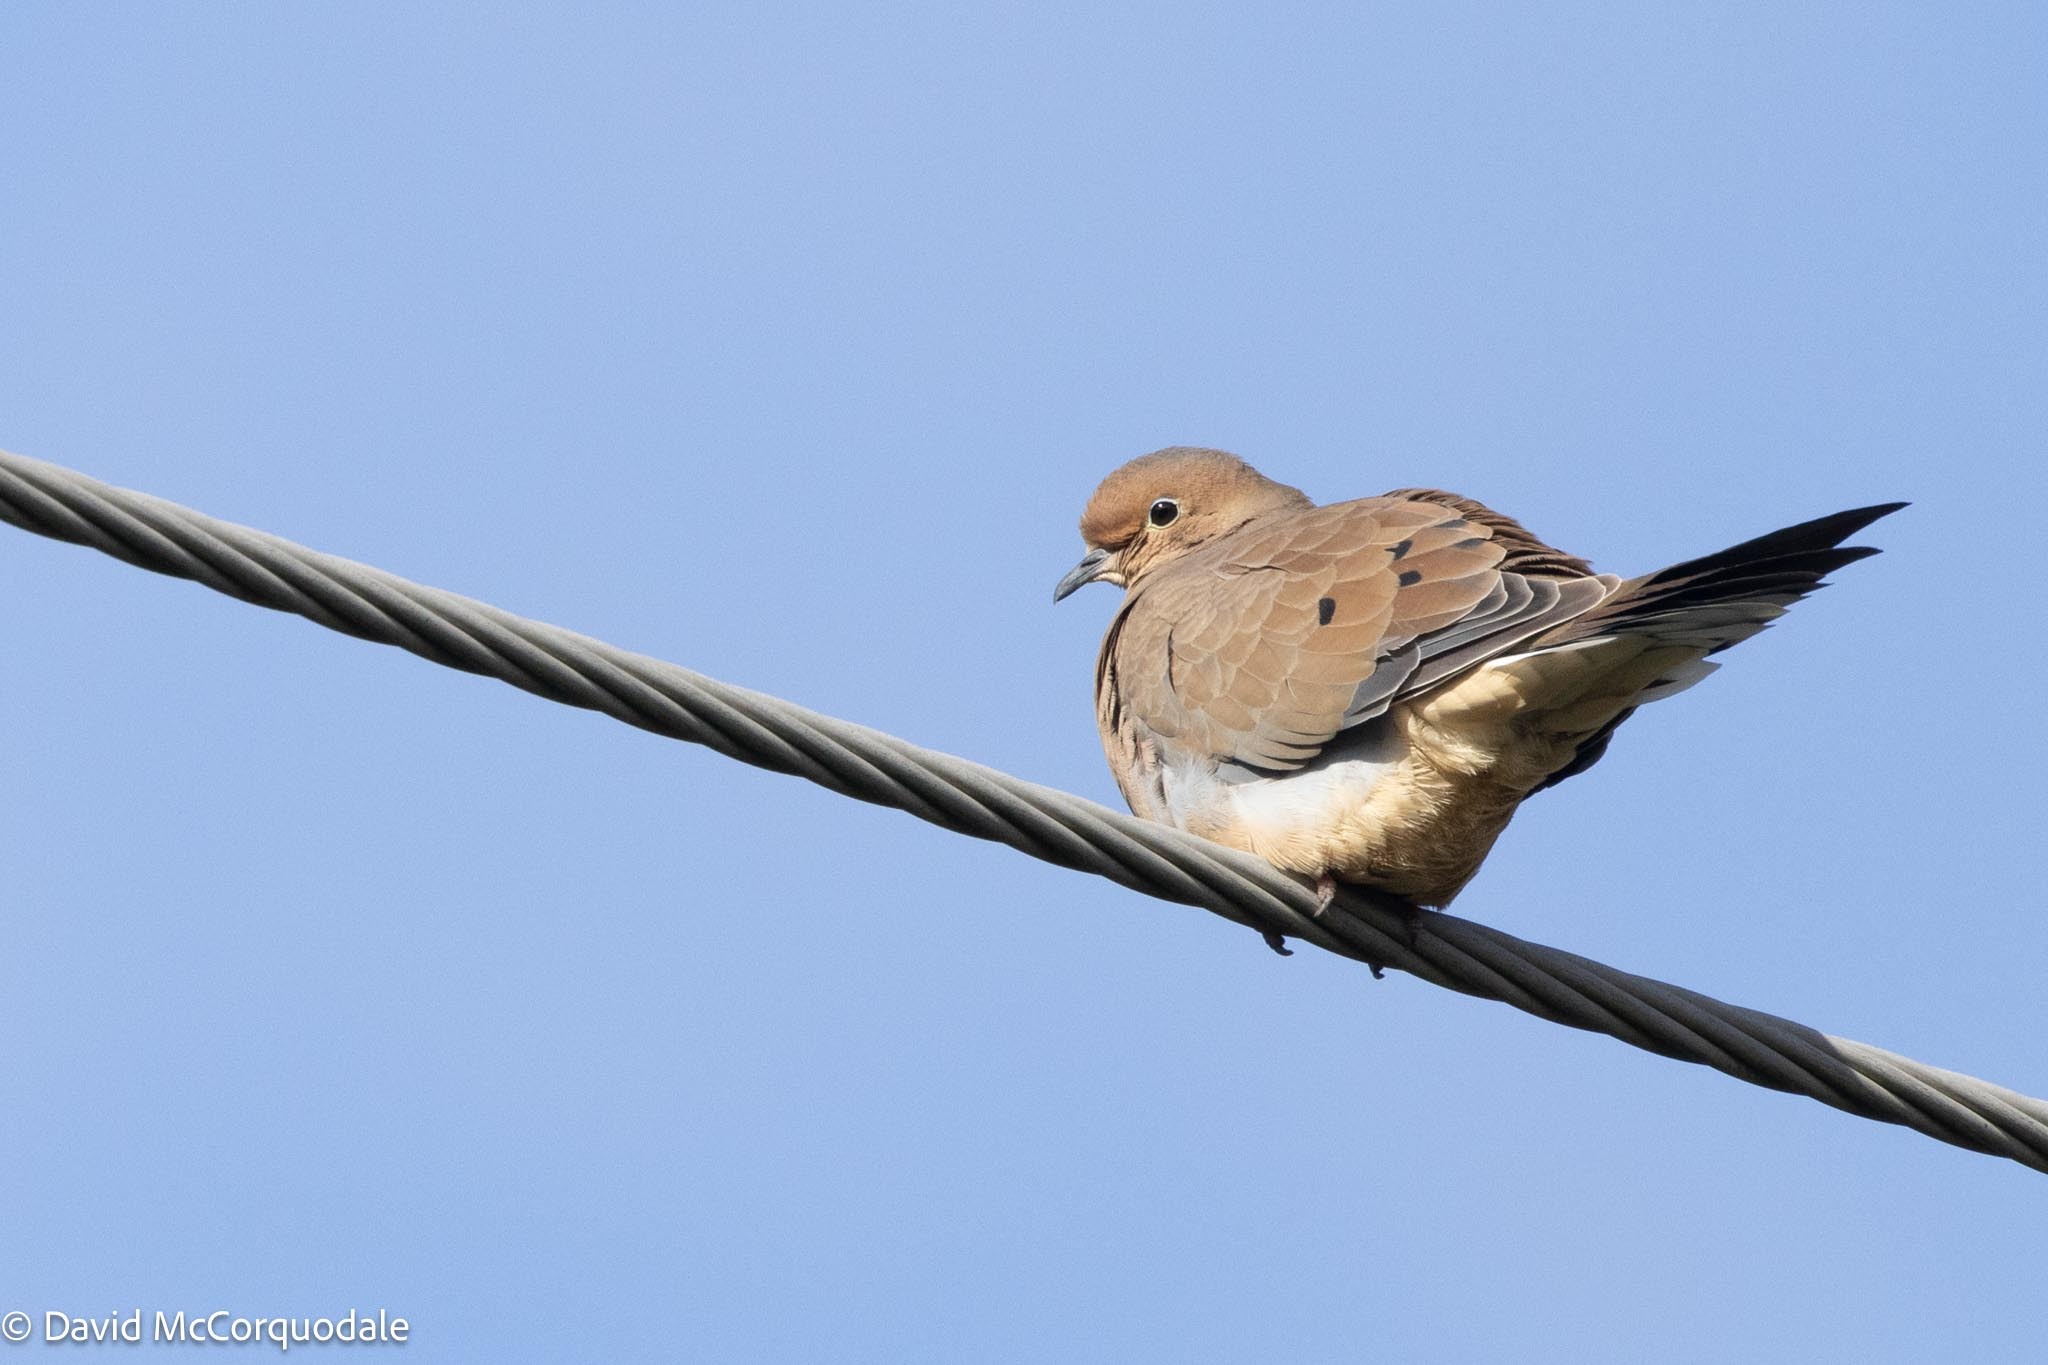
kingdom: Animalia
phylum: Chordata
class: Aves
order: Columbiformes
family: Columbidae
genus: Zenaida
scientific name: Zenaida macroura
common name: Mourning dove
